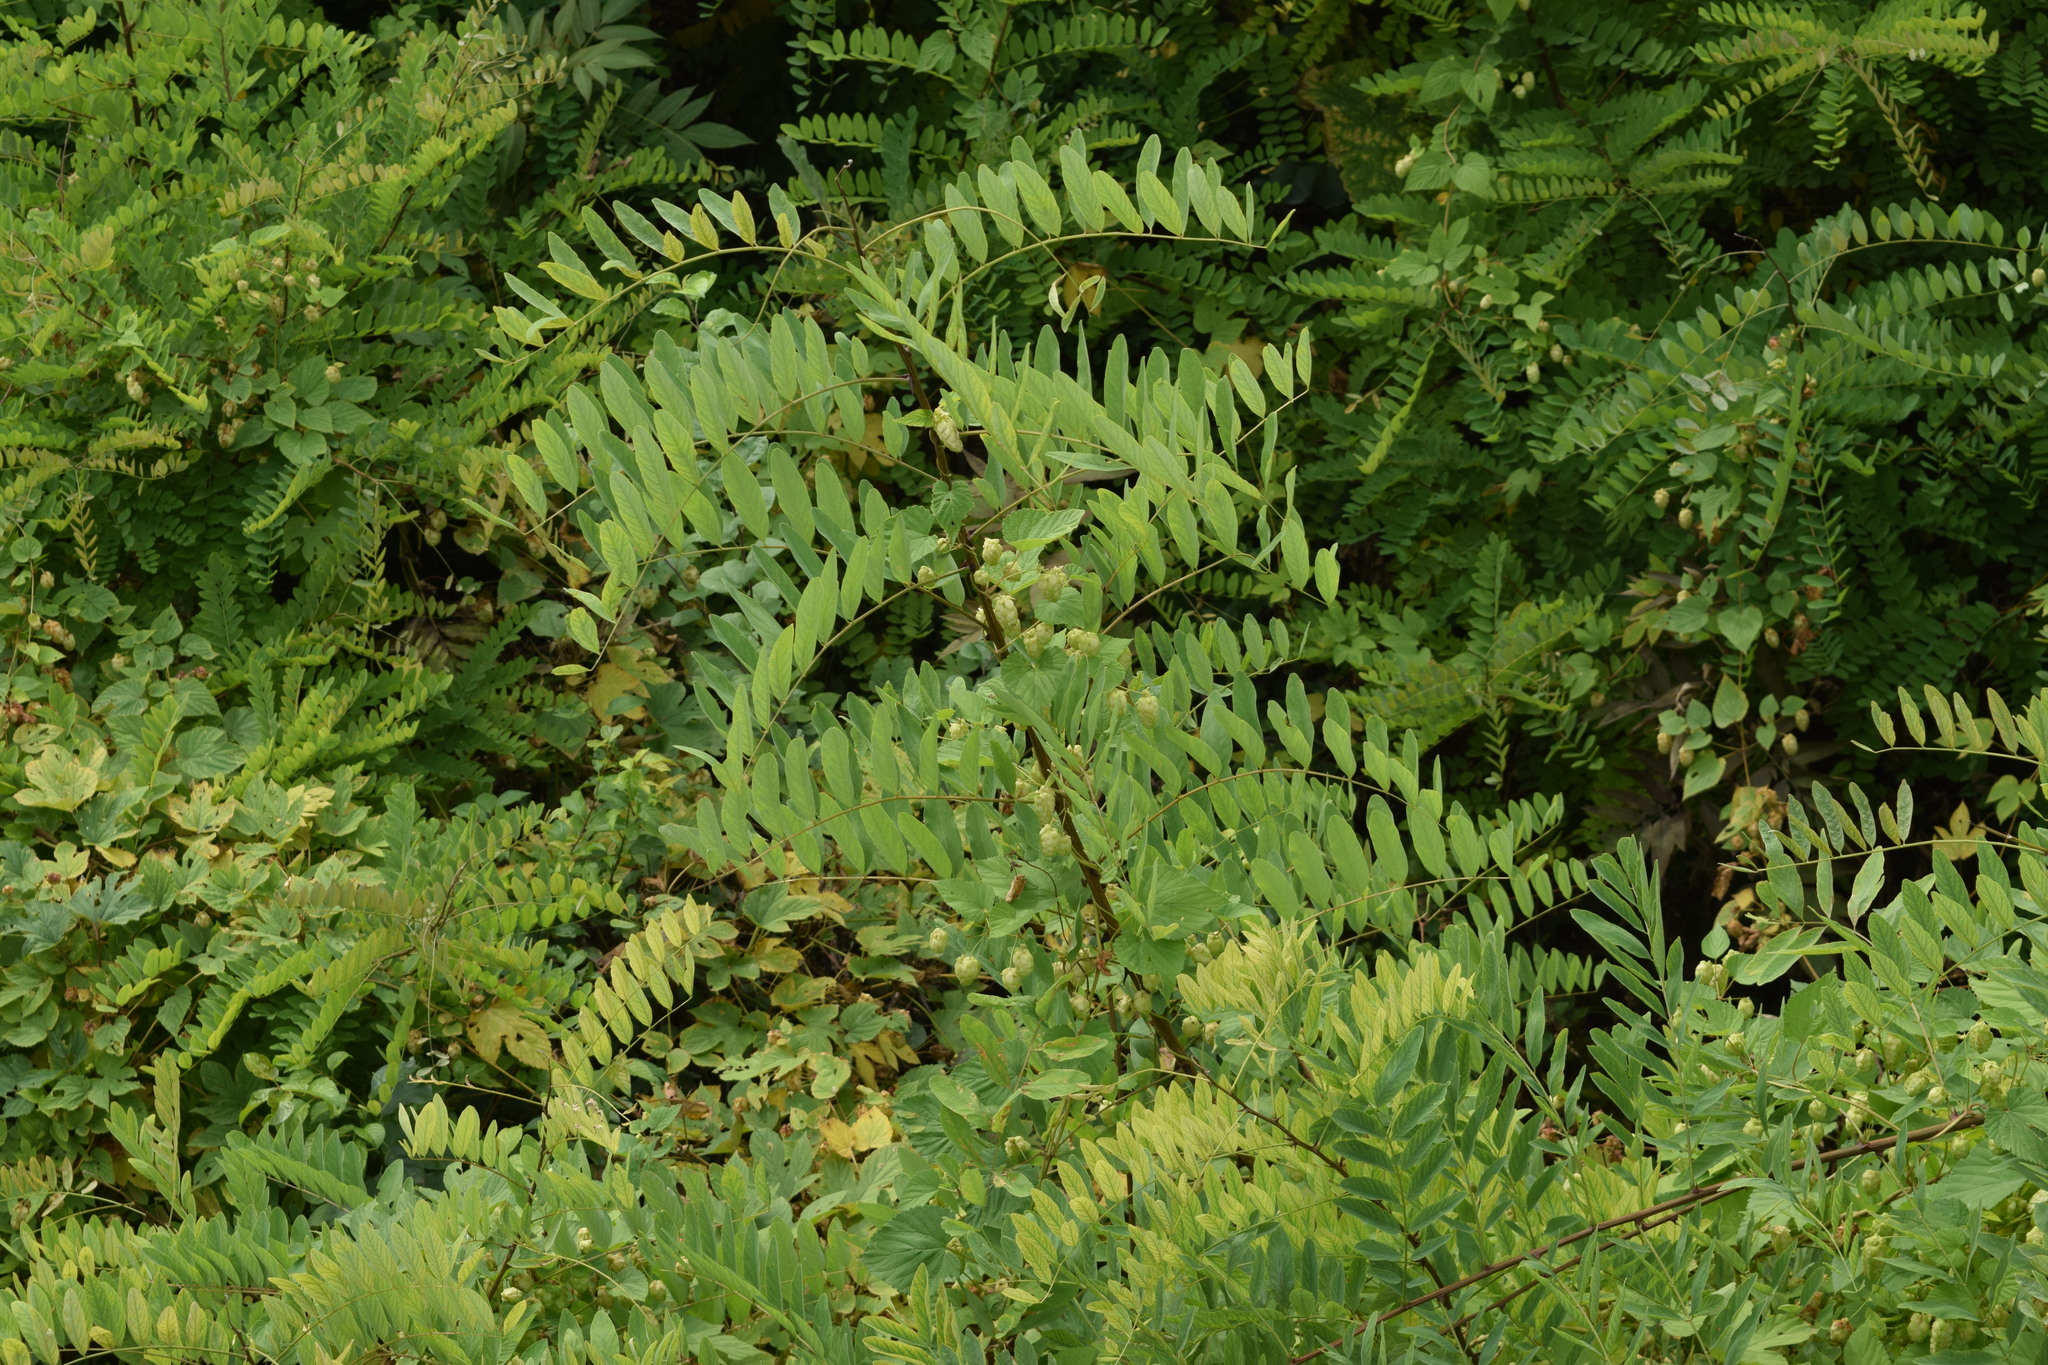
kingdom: Plantae
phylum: Tracheophyta
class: Magnoliopsida
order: Fabales
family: Fabaceae
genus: Robinia
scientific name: Robinia pseudoacacia
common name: Black locust
